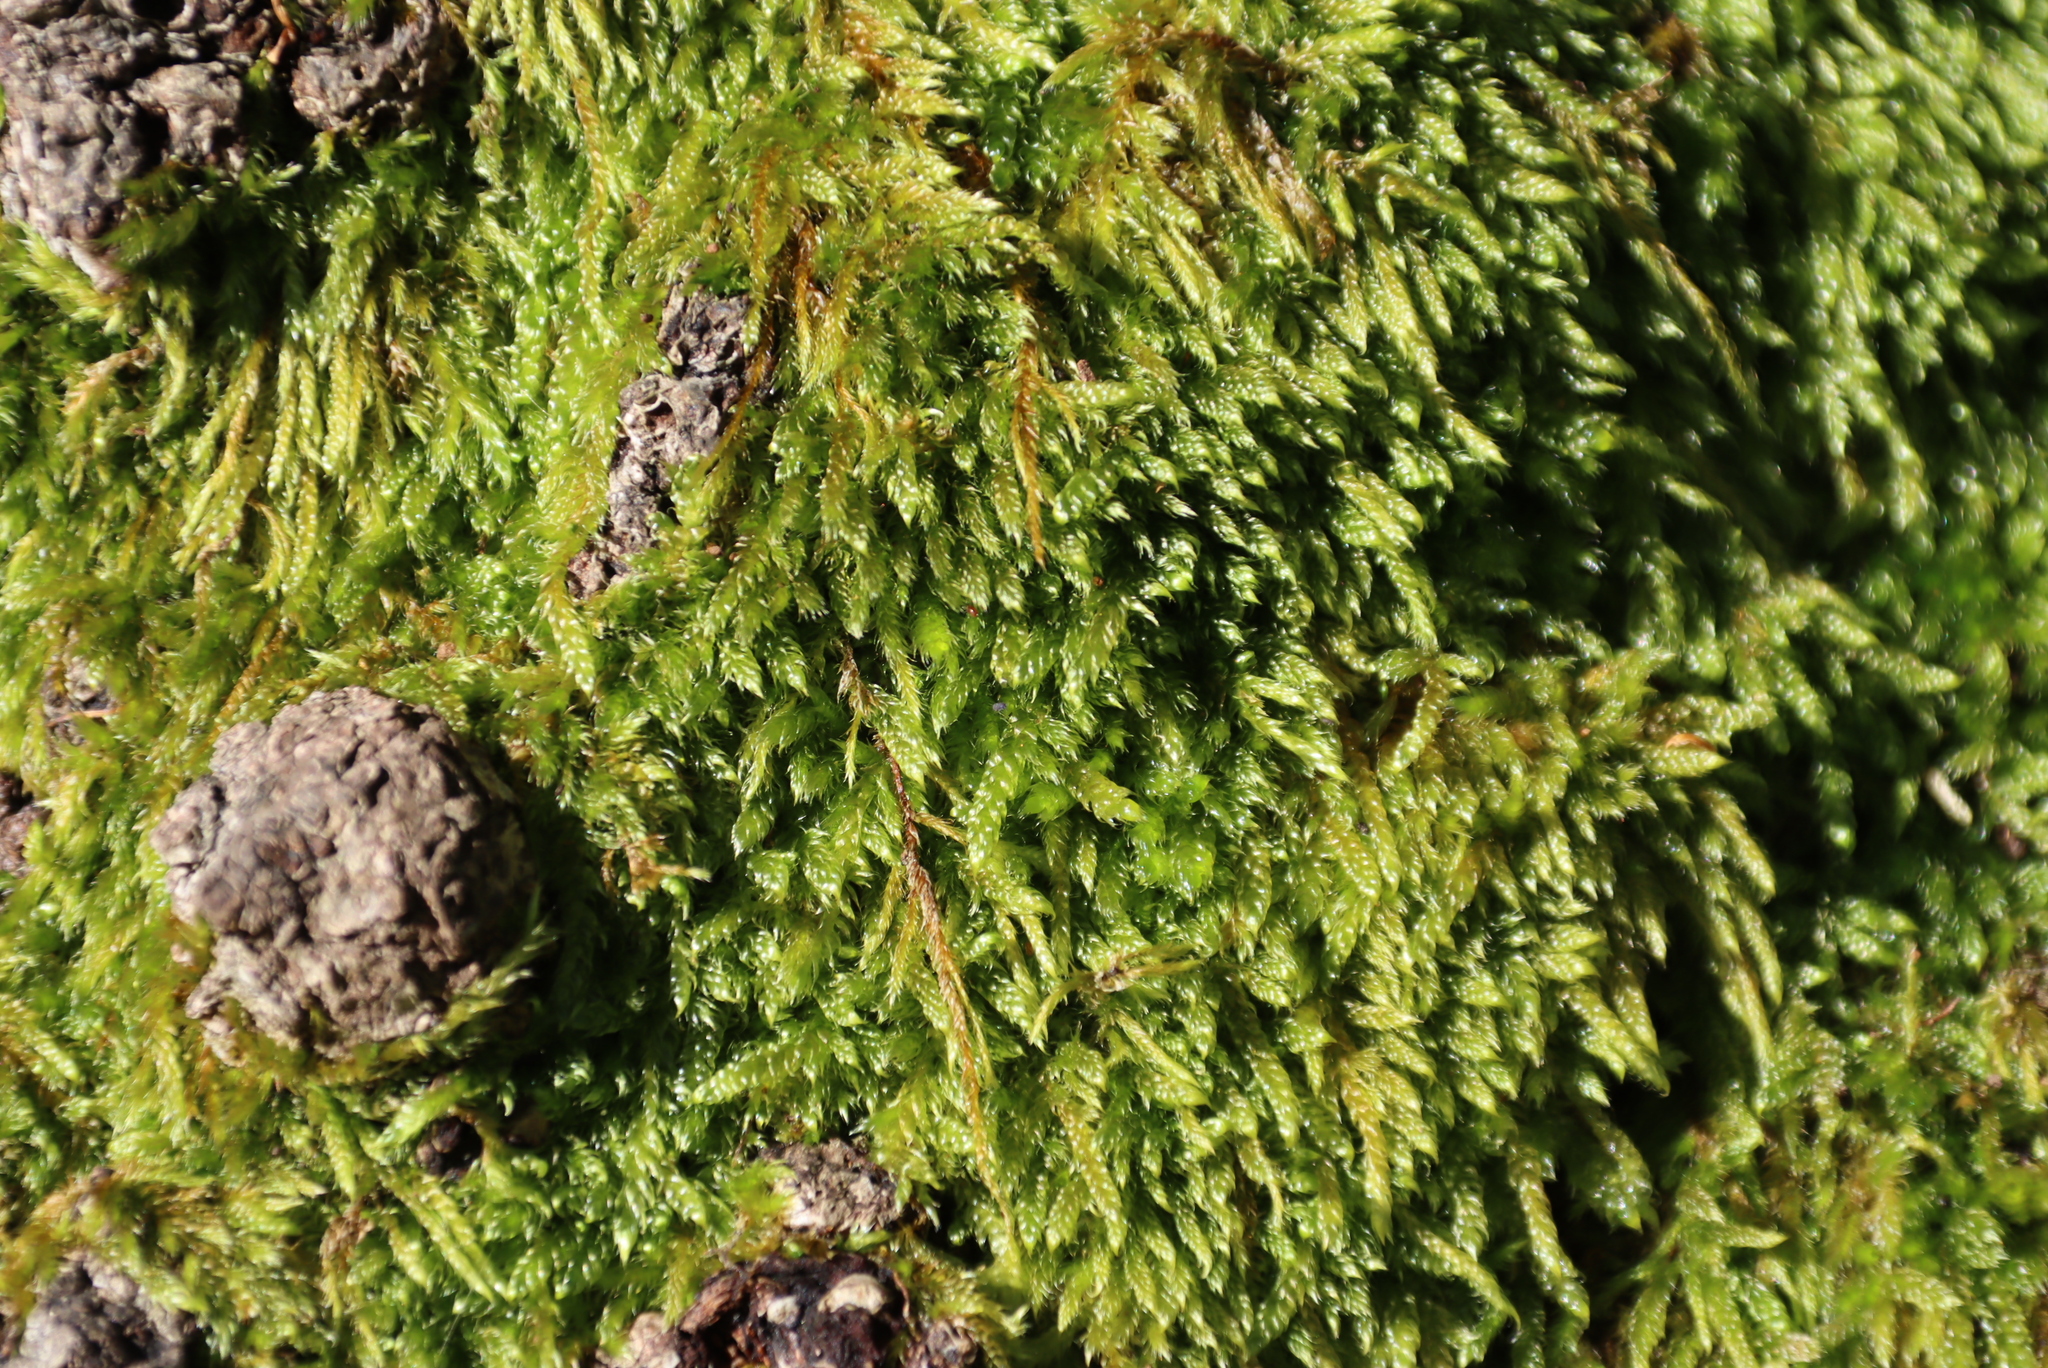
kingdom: Plantae
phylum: Bryophyta
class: Bryopsida
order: Hypnales
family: Hypnaceae
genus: Hypnum
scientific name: Hypnum cupressiforme
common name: Cypress-leaved plait-moss
